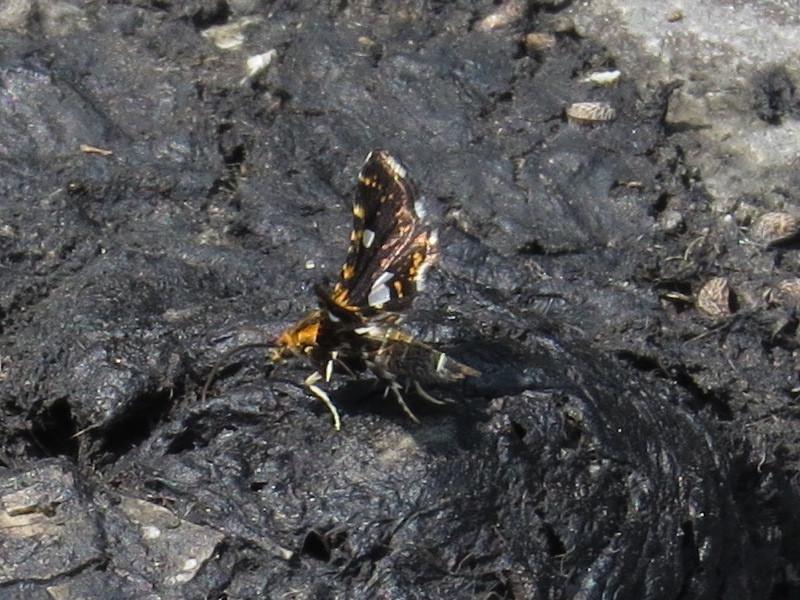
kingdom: Animalia
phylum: Arthropoda
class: Insecta
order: Lepidoptera
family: Thyrididae
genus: Thyris
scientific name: Thyris maculata
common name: Spotted thyris moth
